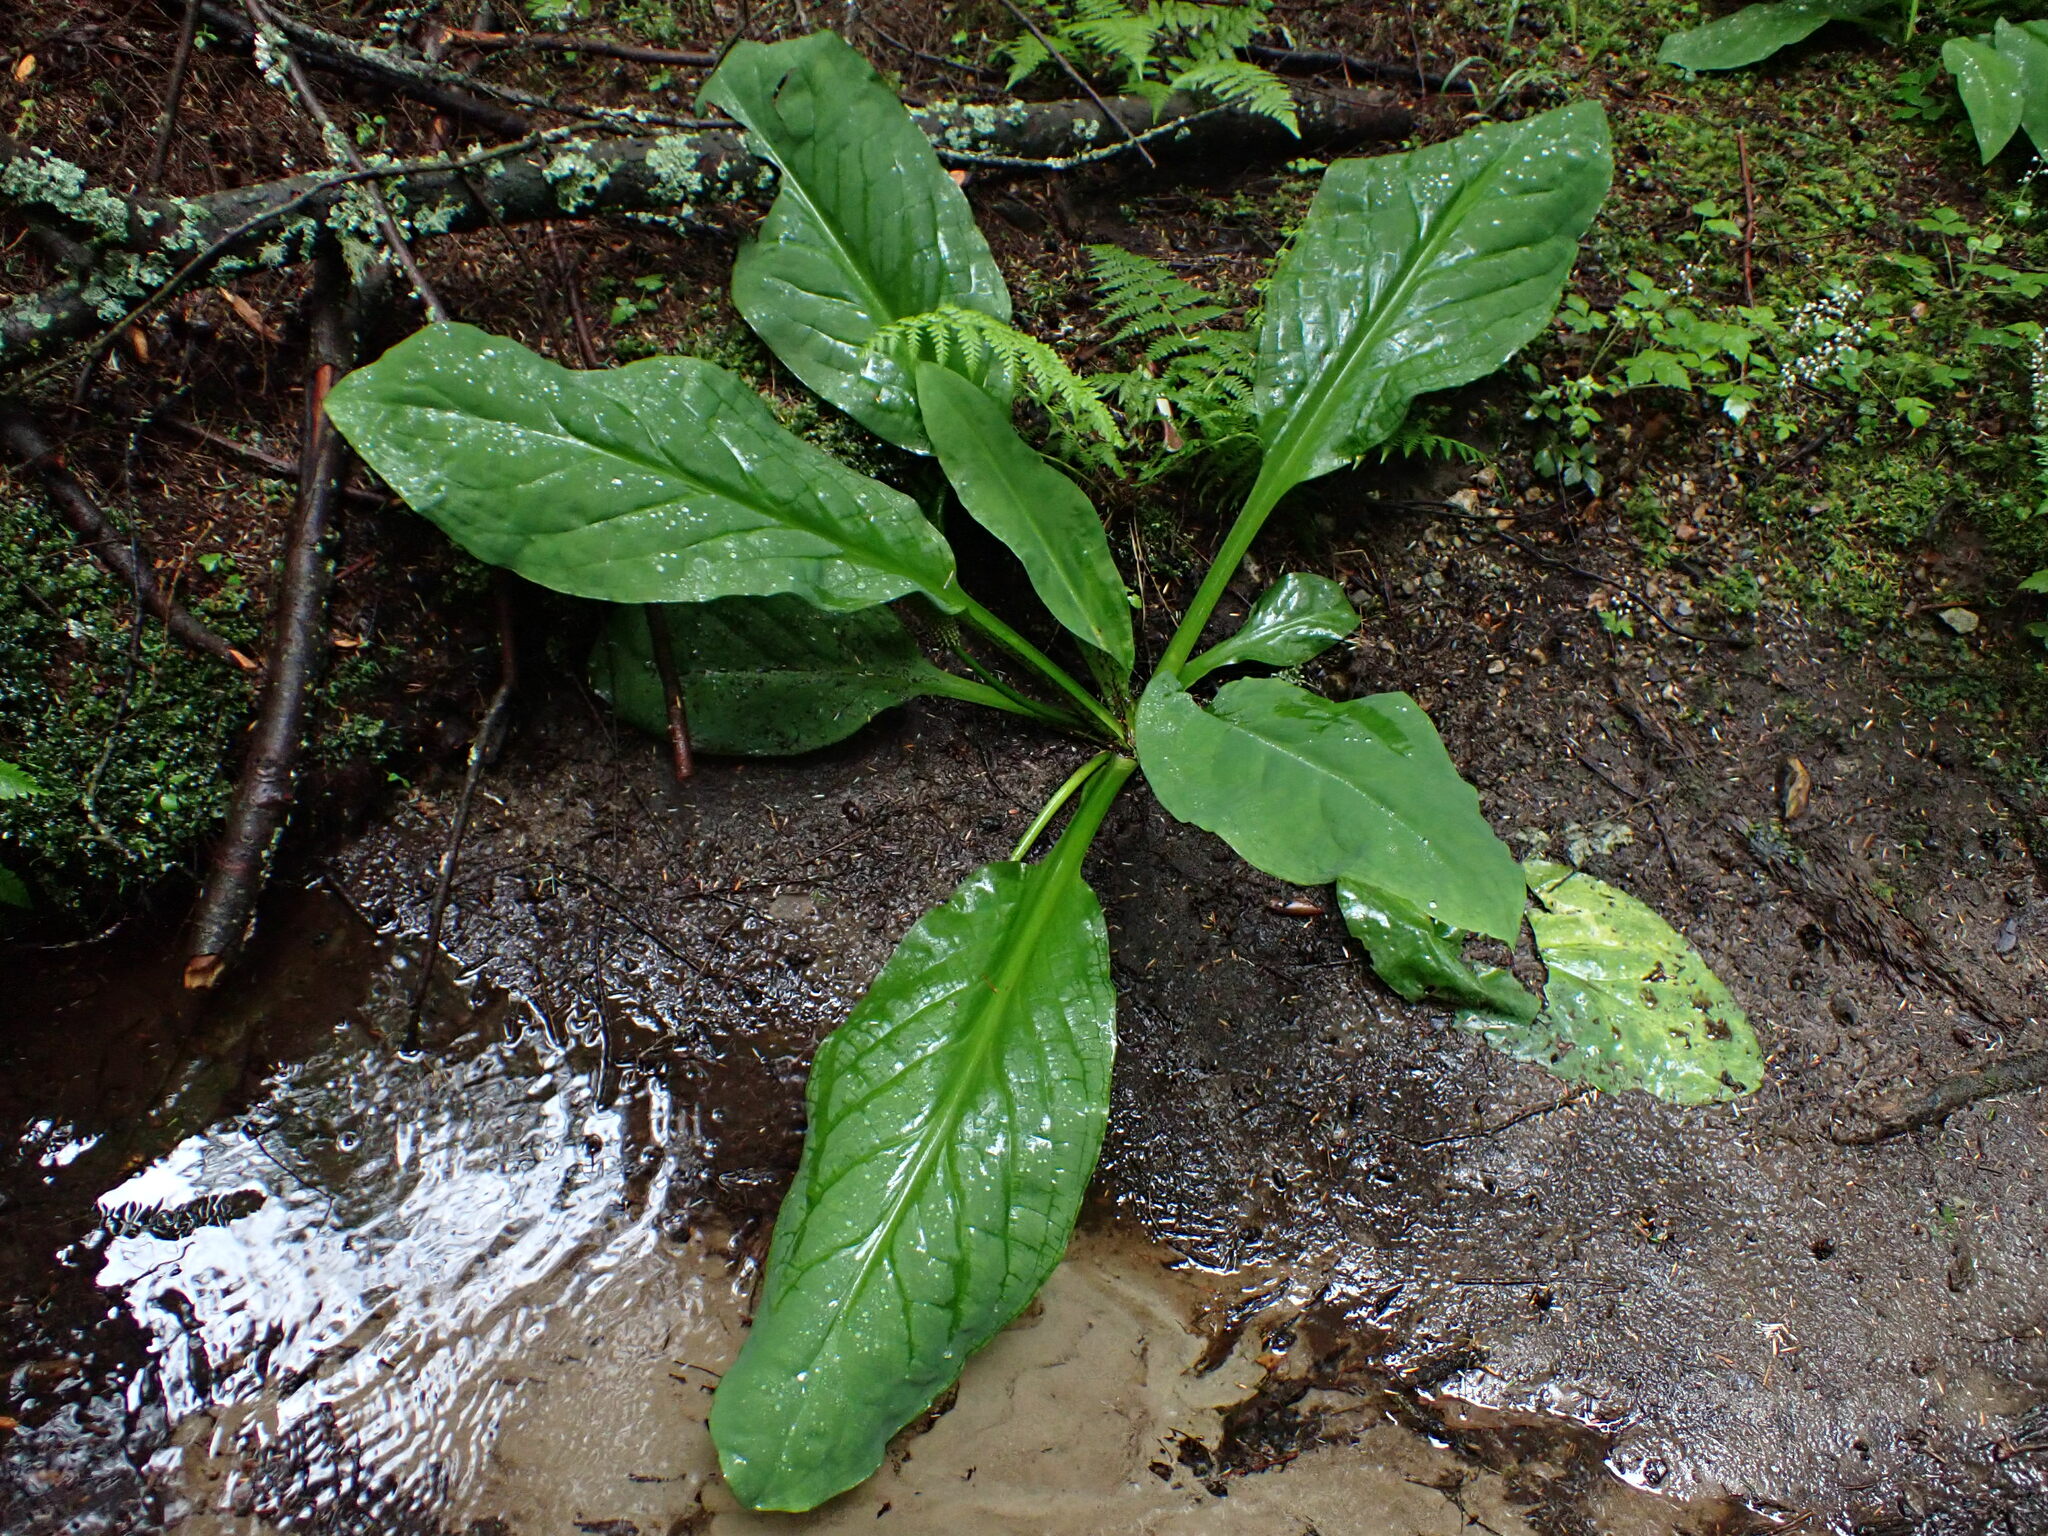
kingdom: Plantae
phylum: Tracheophyta
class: Liliopsida
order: Alismatales
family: Araceae
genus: Lysichiton
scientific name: Lysichiton americanus
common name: American skunk cabbage
